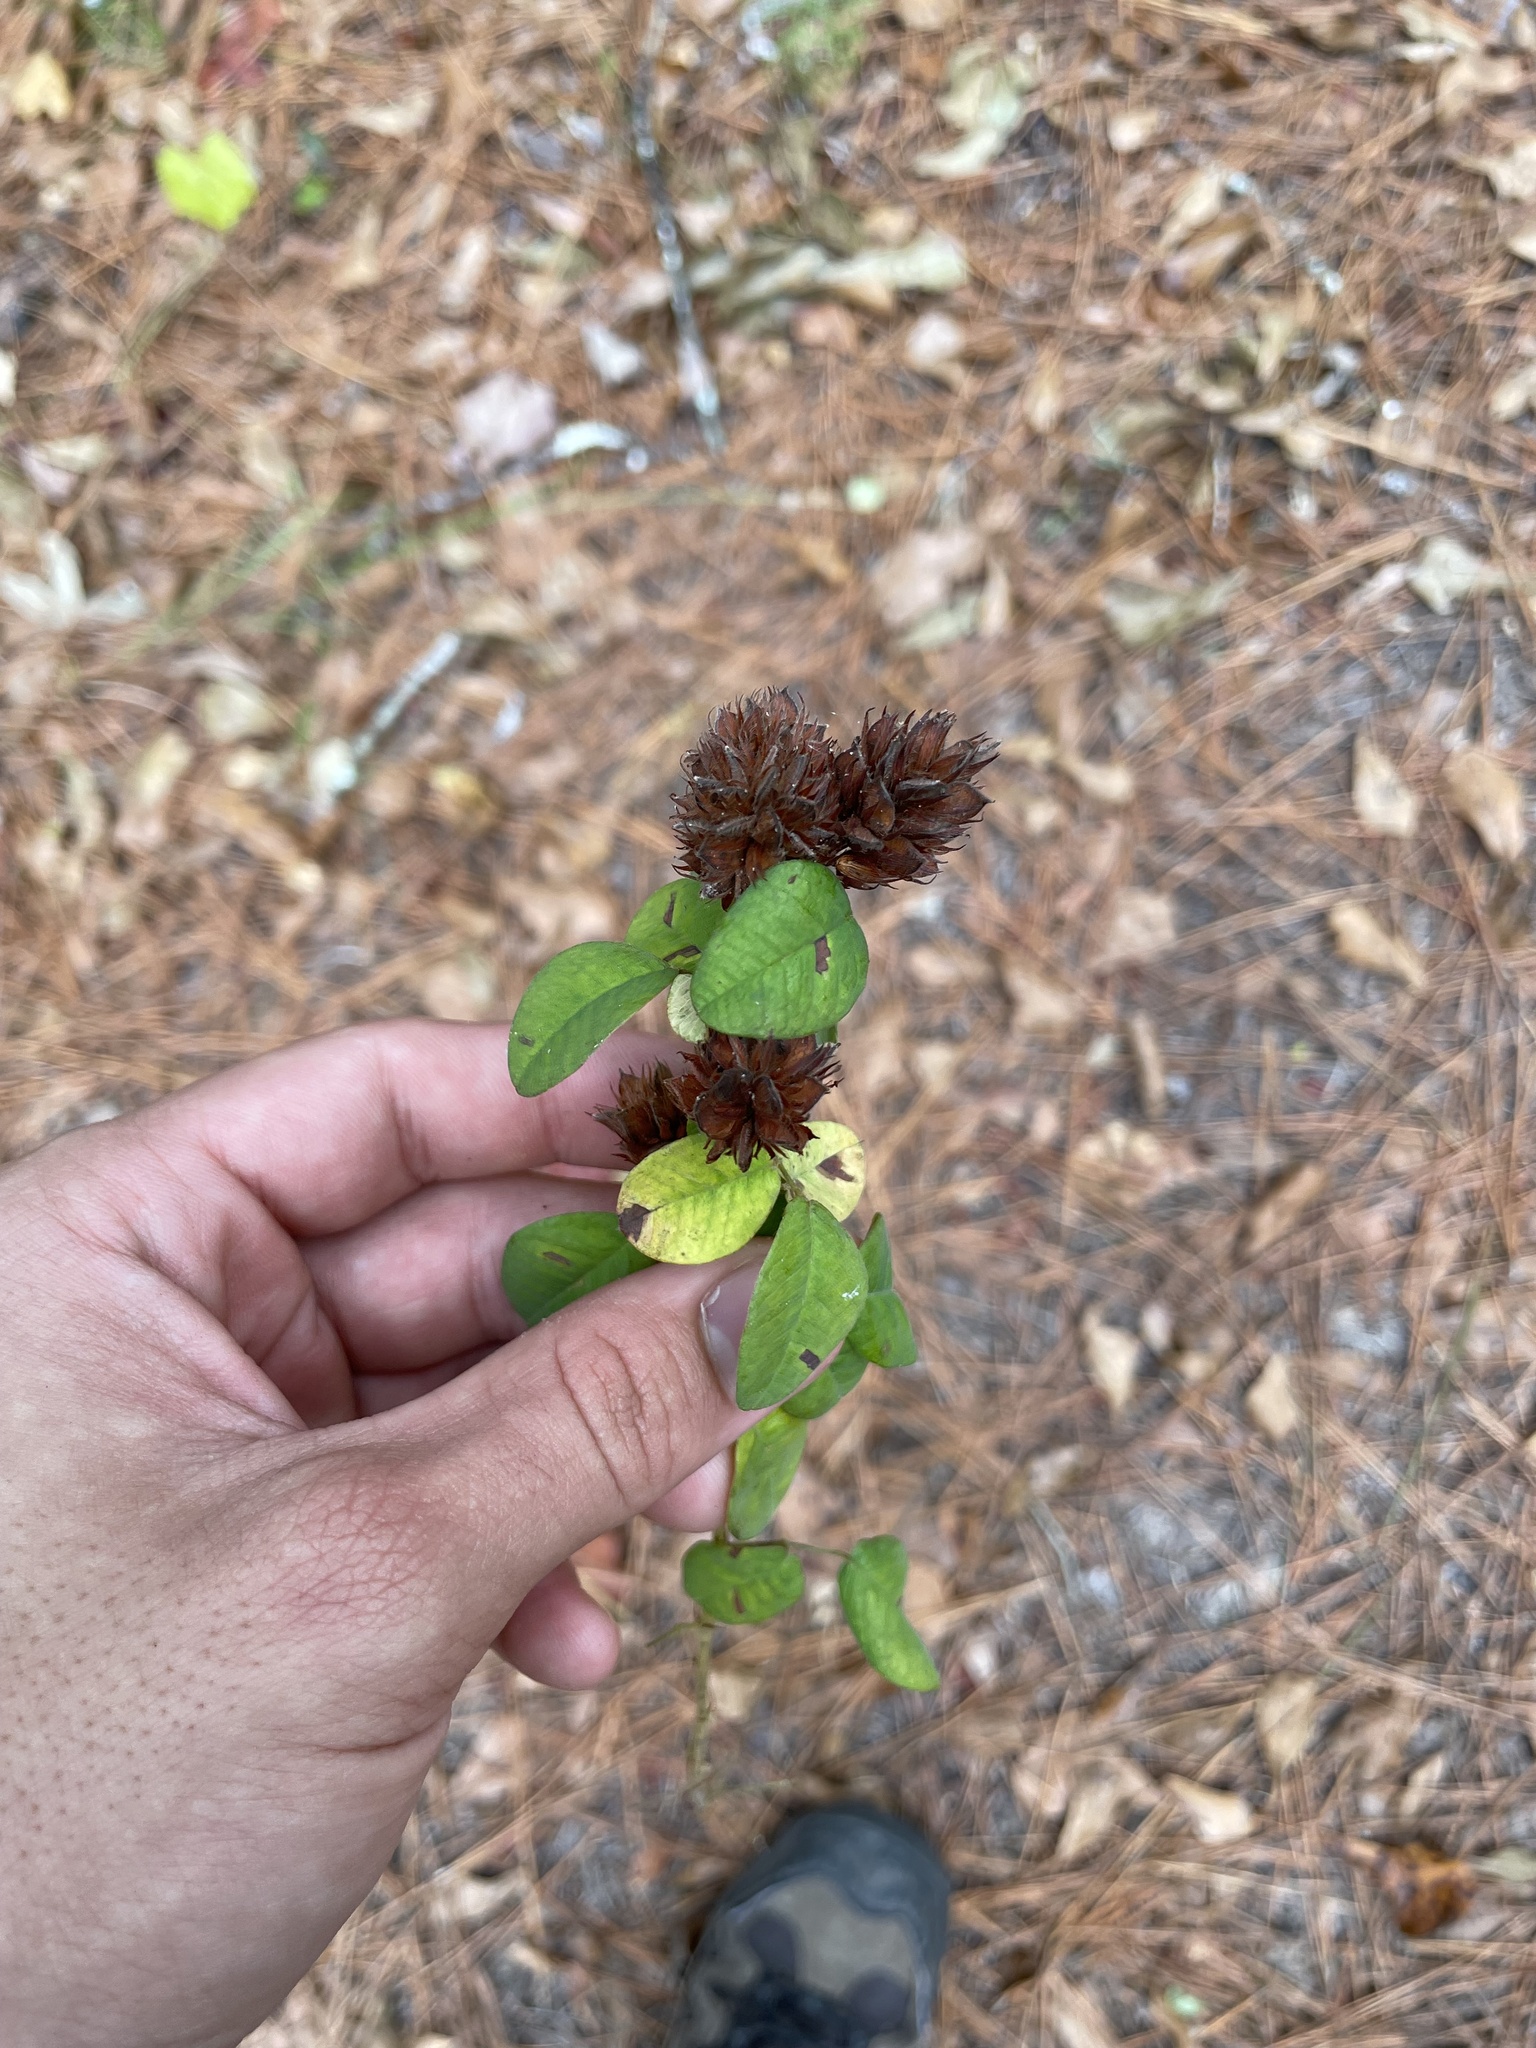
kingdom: Plantae
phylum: Tracheophyta
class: Magnoliopsida
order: Fabales
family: Fabaceae
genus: Lespedeza
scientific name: Lespedeza hirta
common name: Hairy lespedeza
